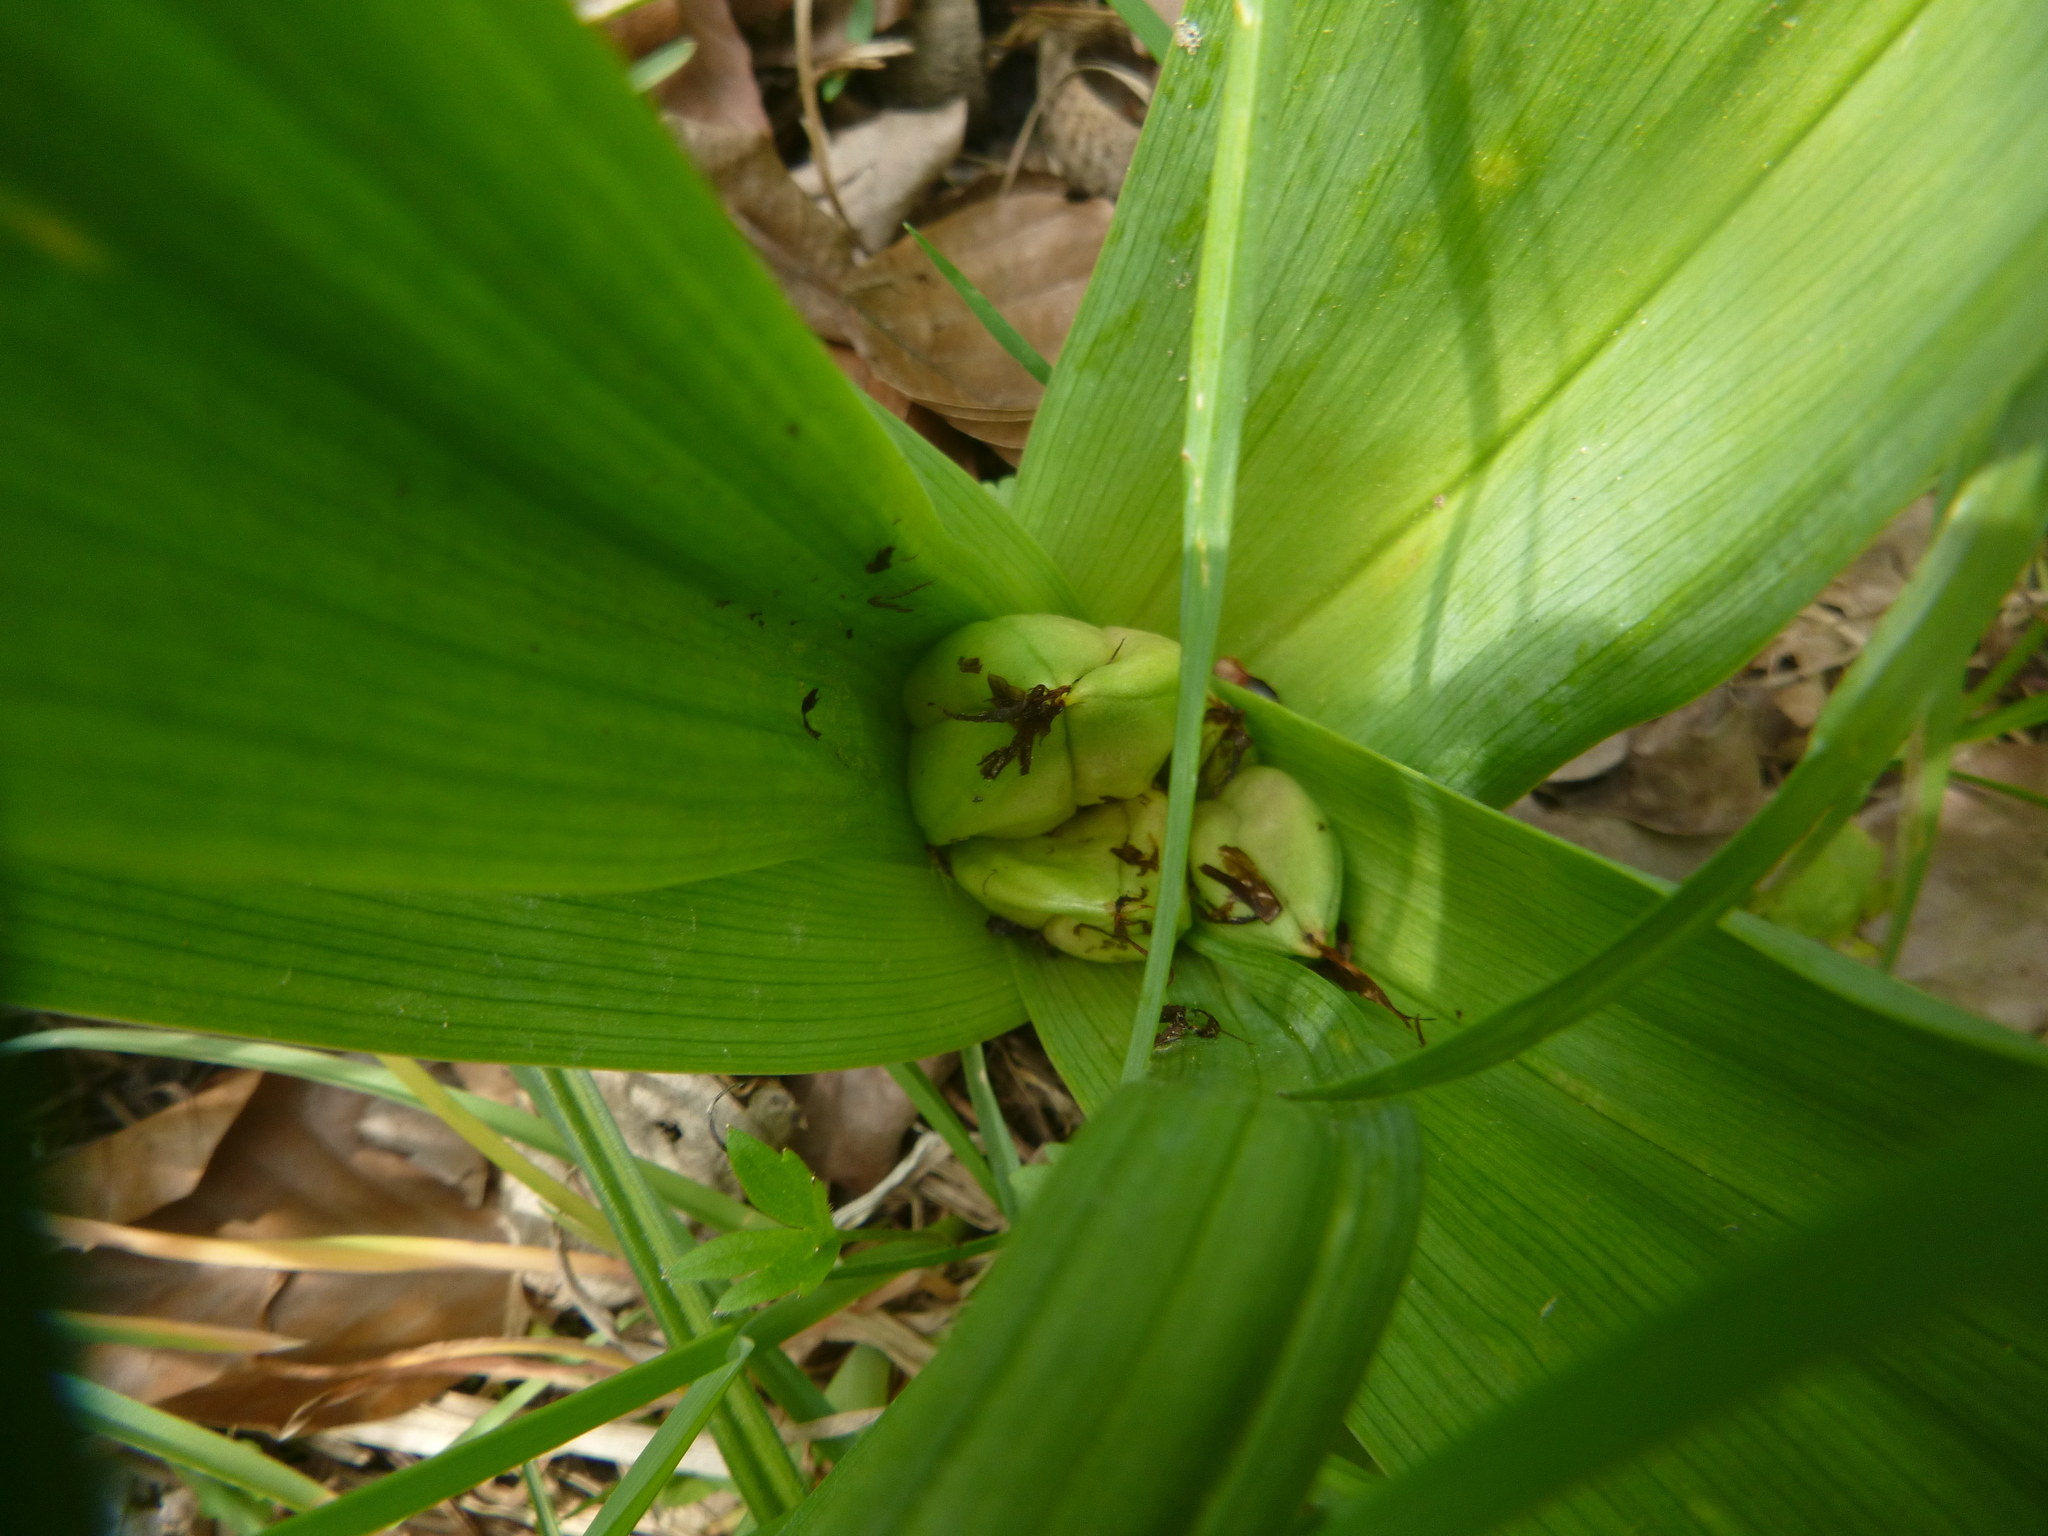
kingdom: Plantae
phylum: Tracheophyta
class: Liliopsida
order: Liliales
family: Colchicaceae
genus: Colchicum
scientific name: Colchicum autumnale
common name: Autumn crocus
